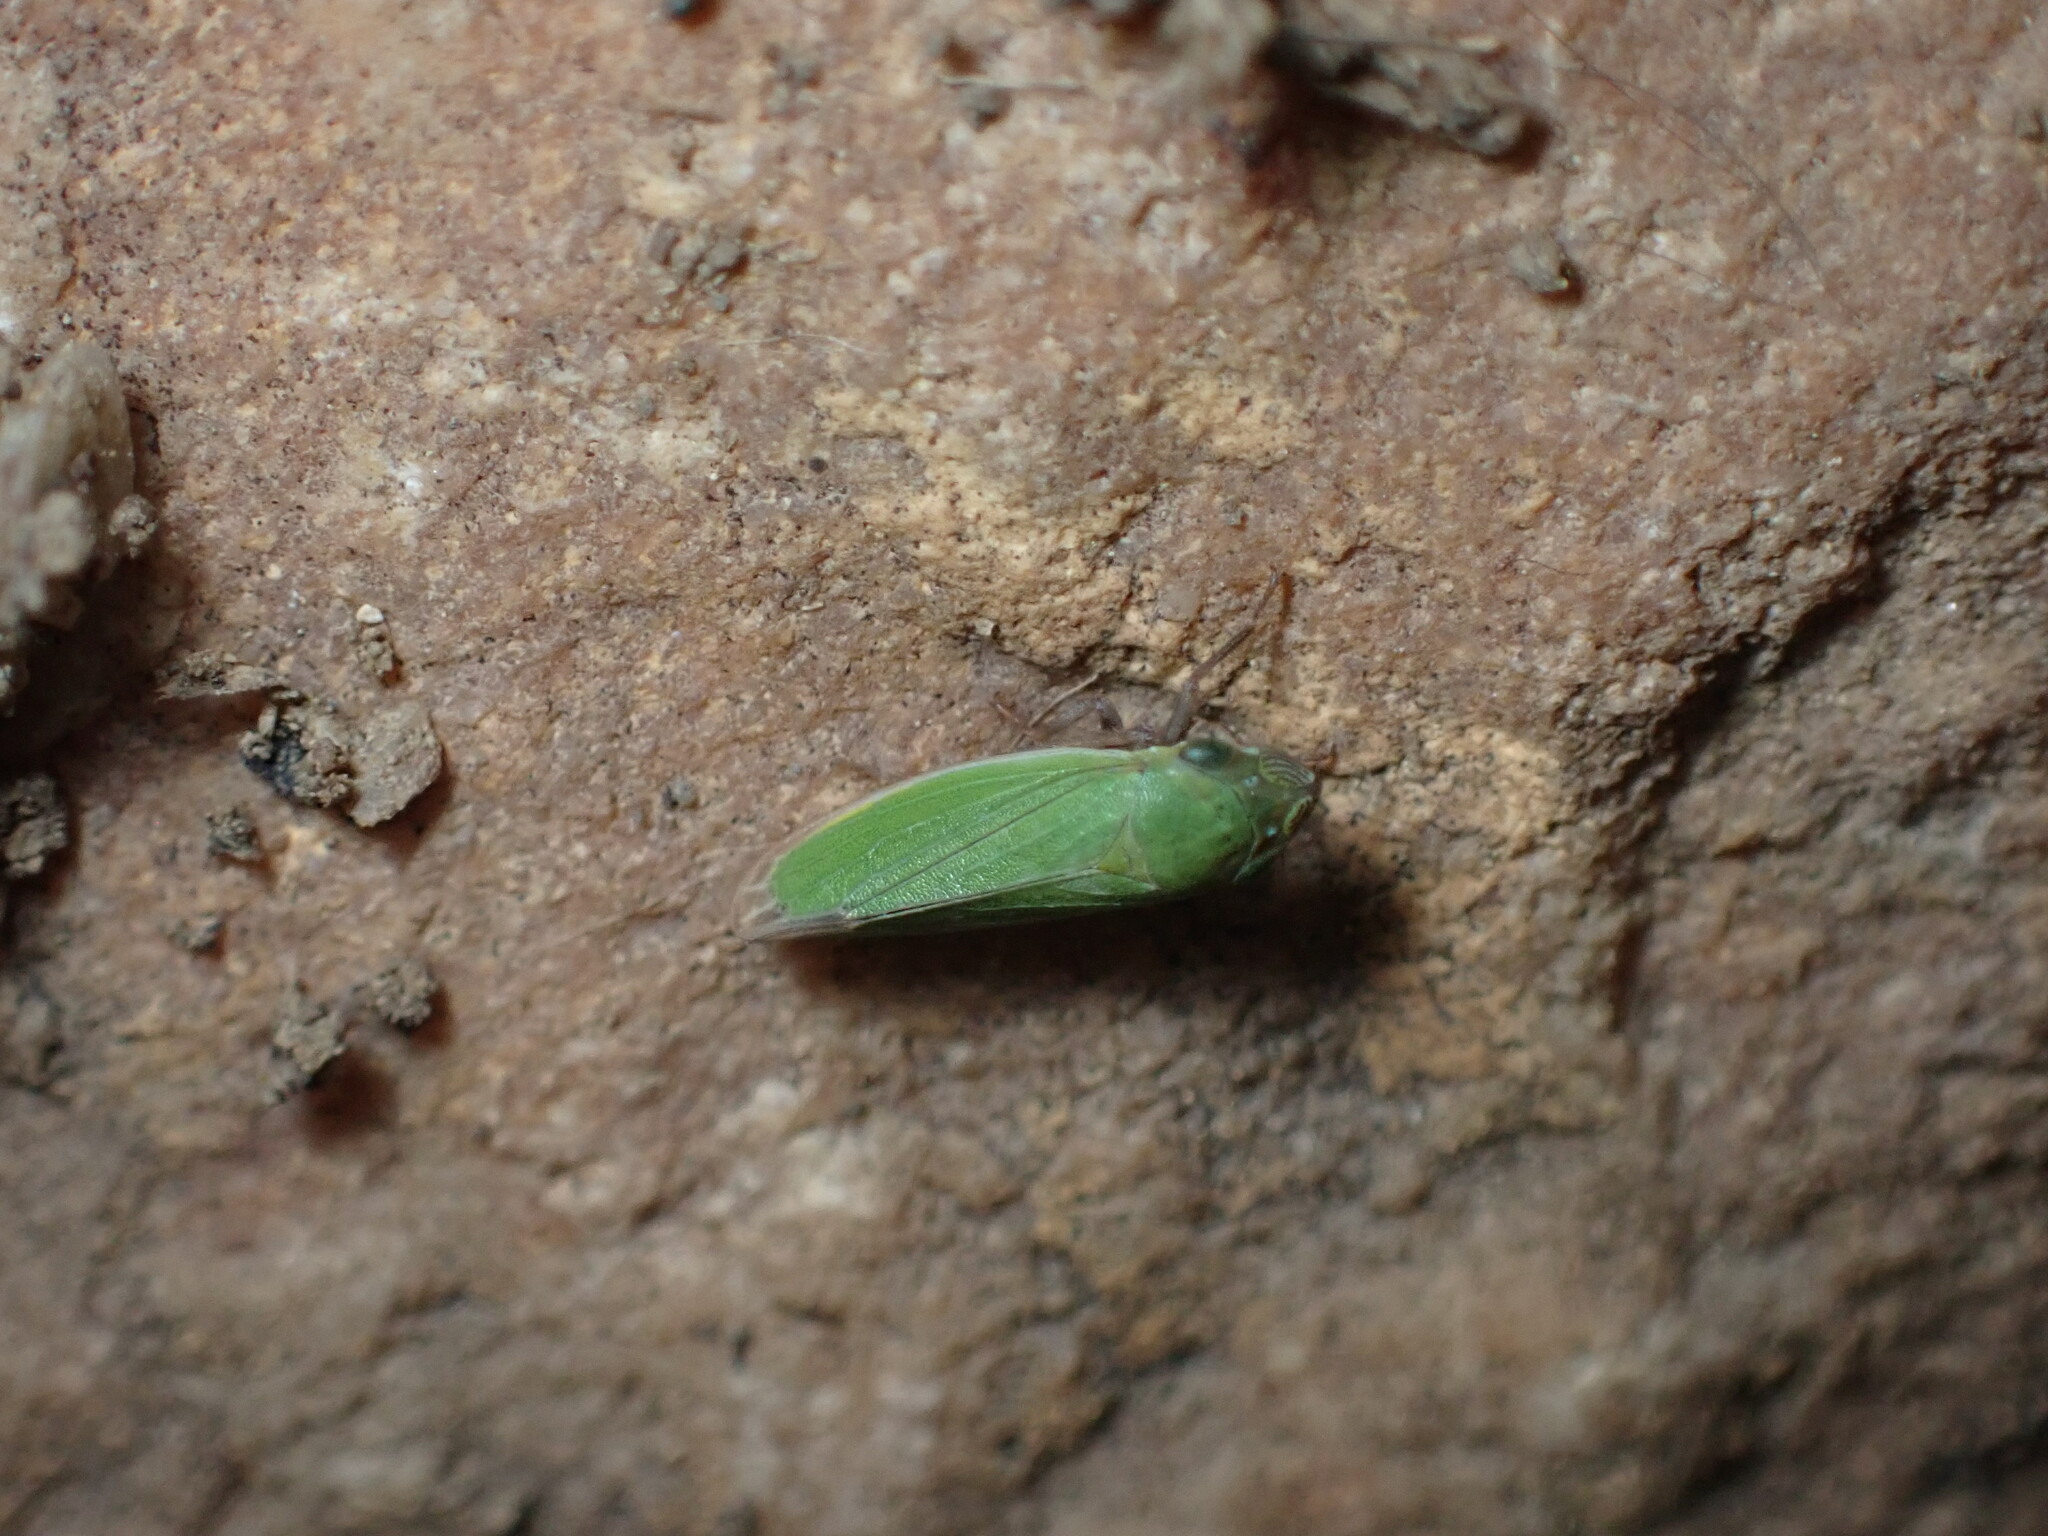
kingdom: Animalia
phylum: Arthropoda
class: Insecta
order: Hemiptera
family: Cicadellidae
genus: Helochara
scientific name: Helochara communis
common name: Bog leafhopper
